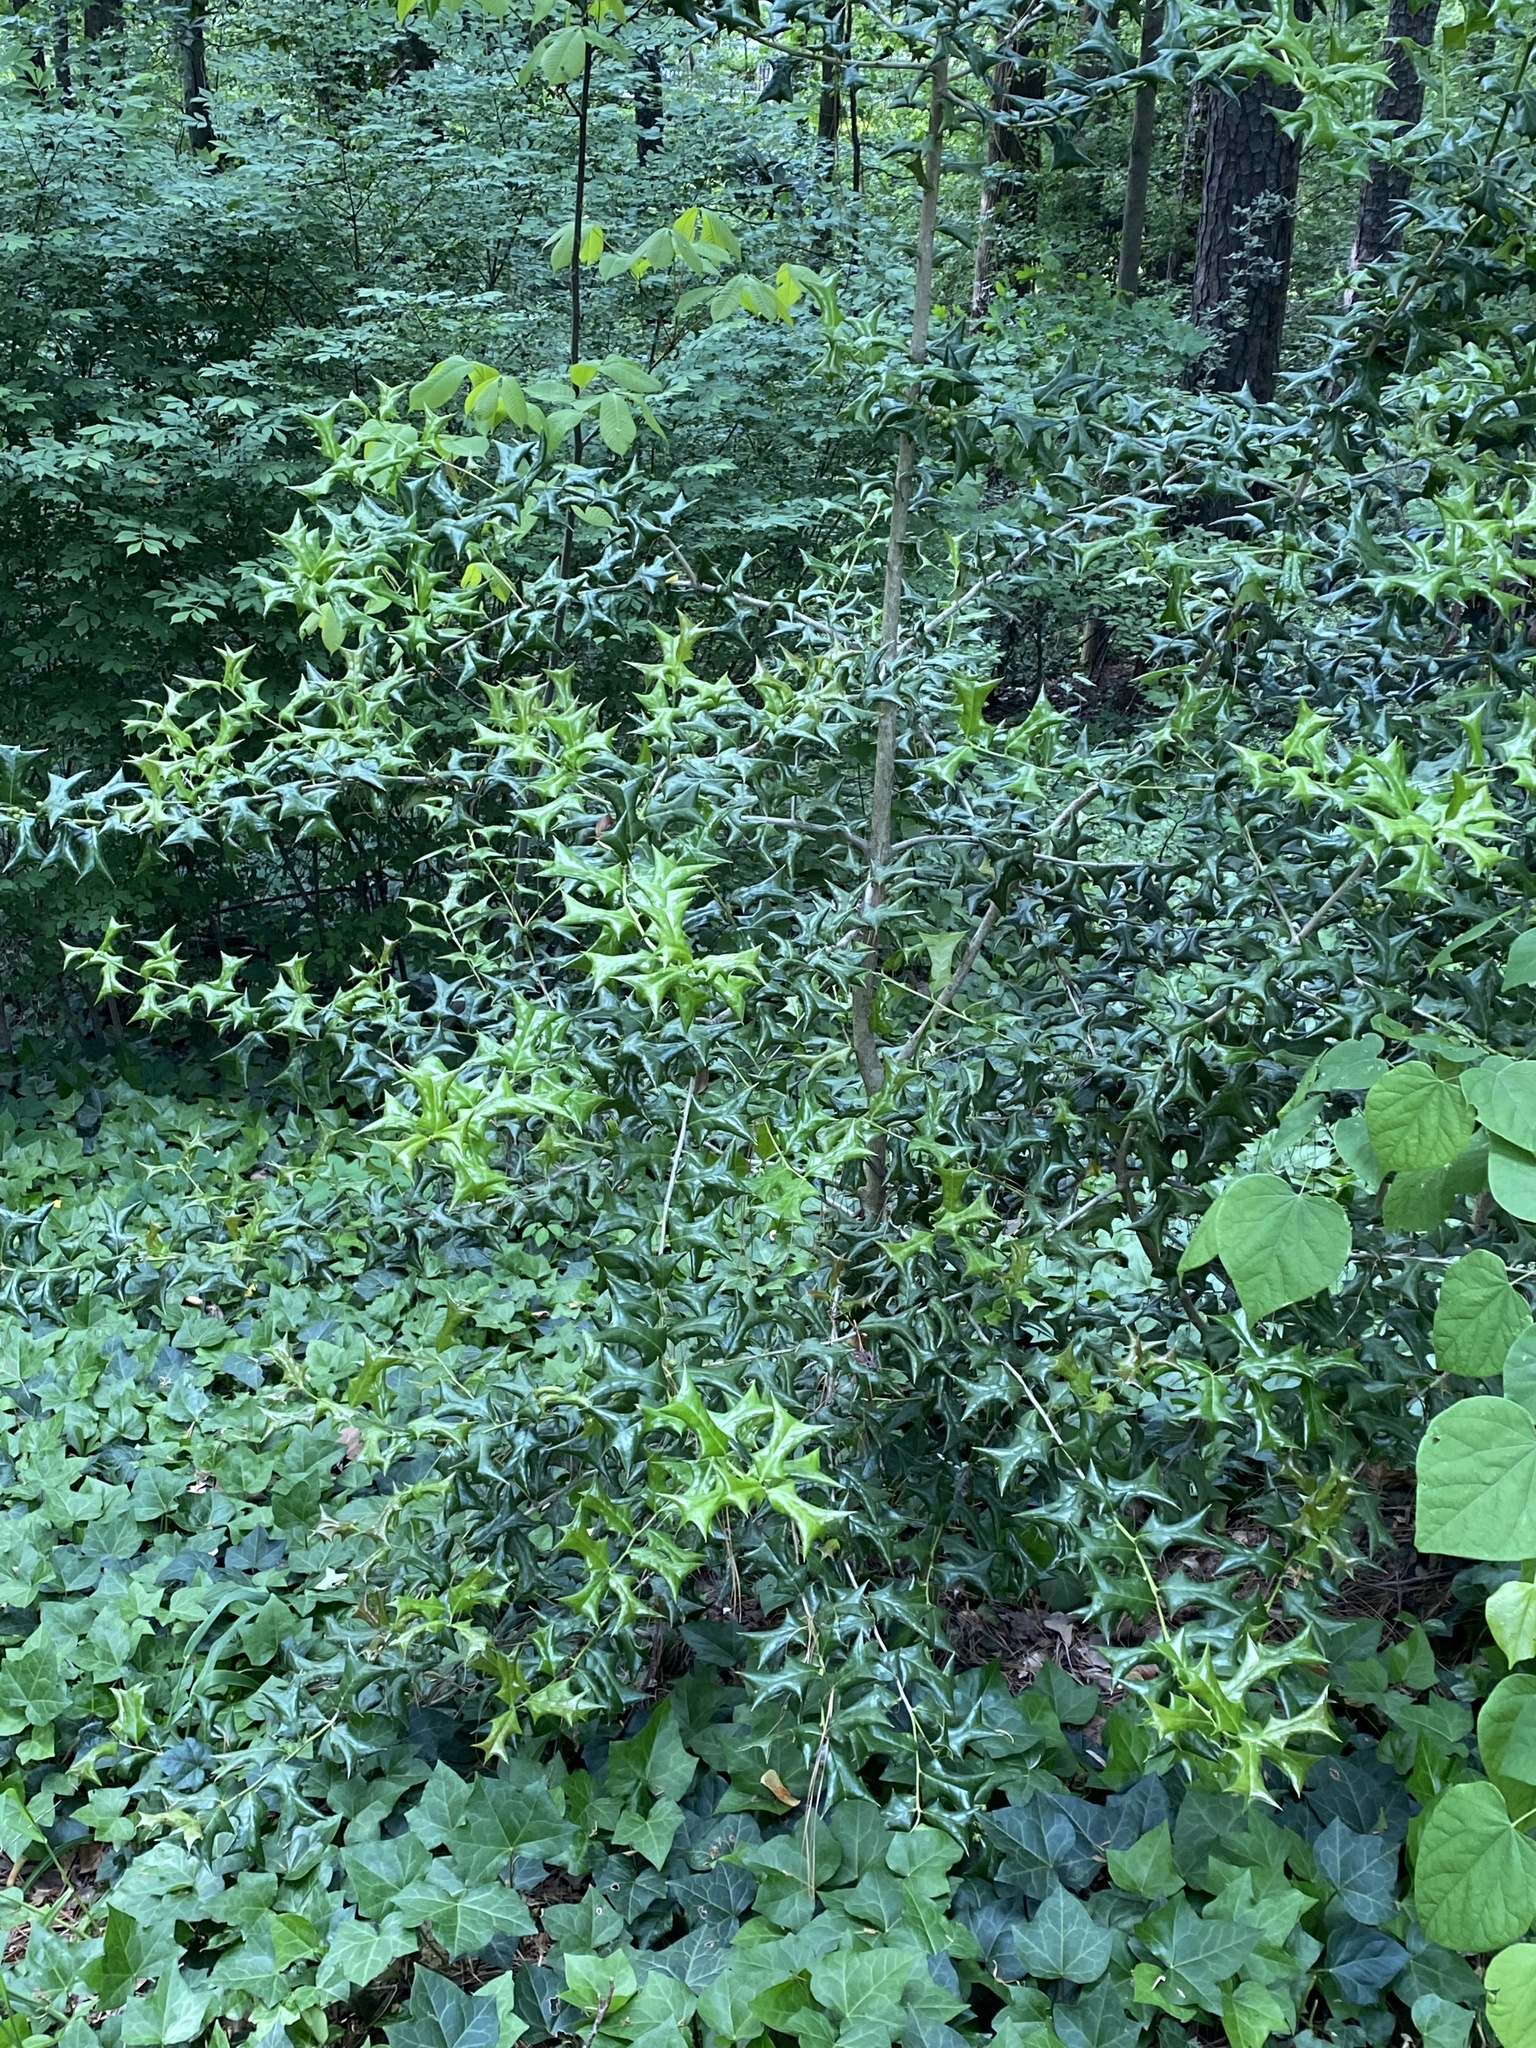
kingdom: Plantae
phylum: Tracheophyta
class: Magnoliopsida
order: Aquifoliales
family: Aquifoliaceae
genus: Ilex
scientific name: Ilex cornuta
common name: Chinese holly
